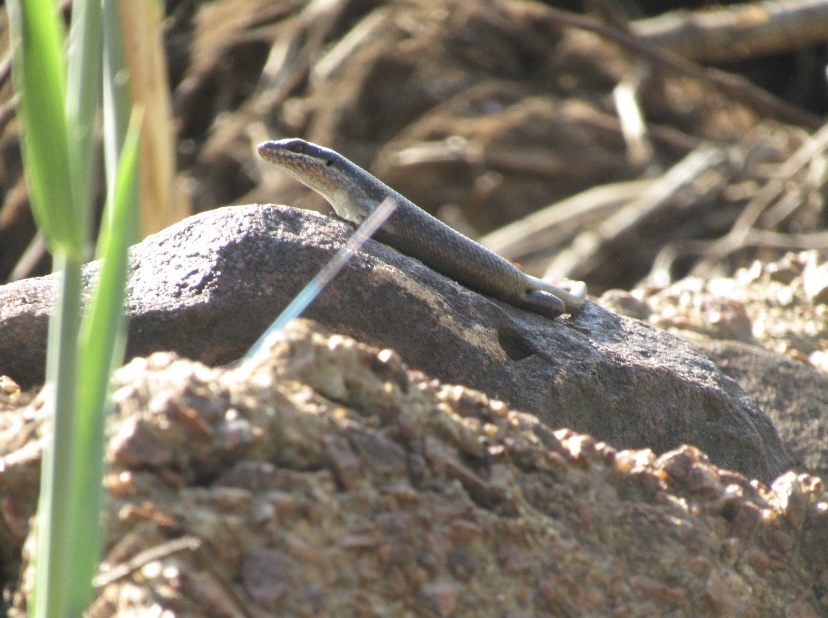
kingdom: Animalia
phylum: Chordata
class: Squamata
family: Scincidae
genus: Trachylepis
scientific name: Trachylepis punctatissima
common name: Montane speckled skink
